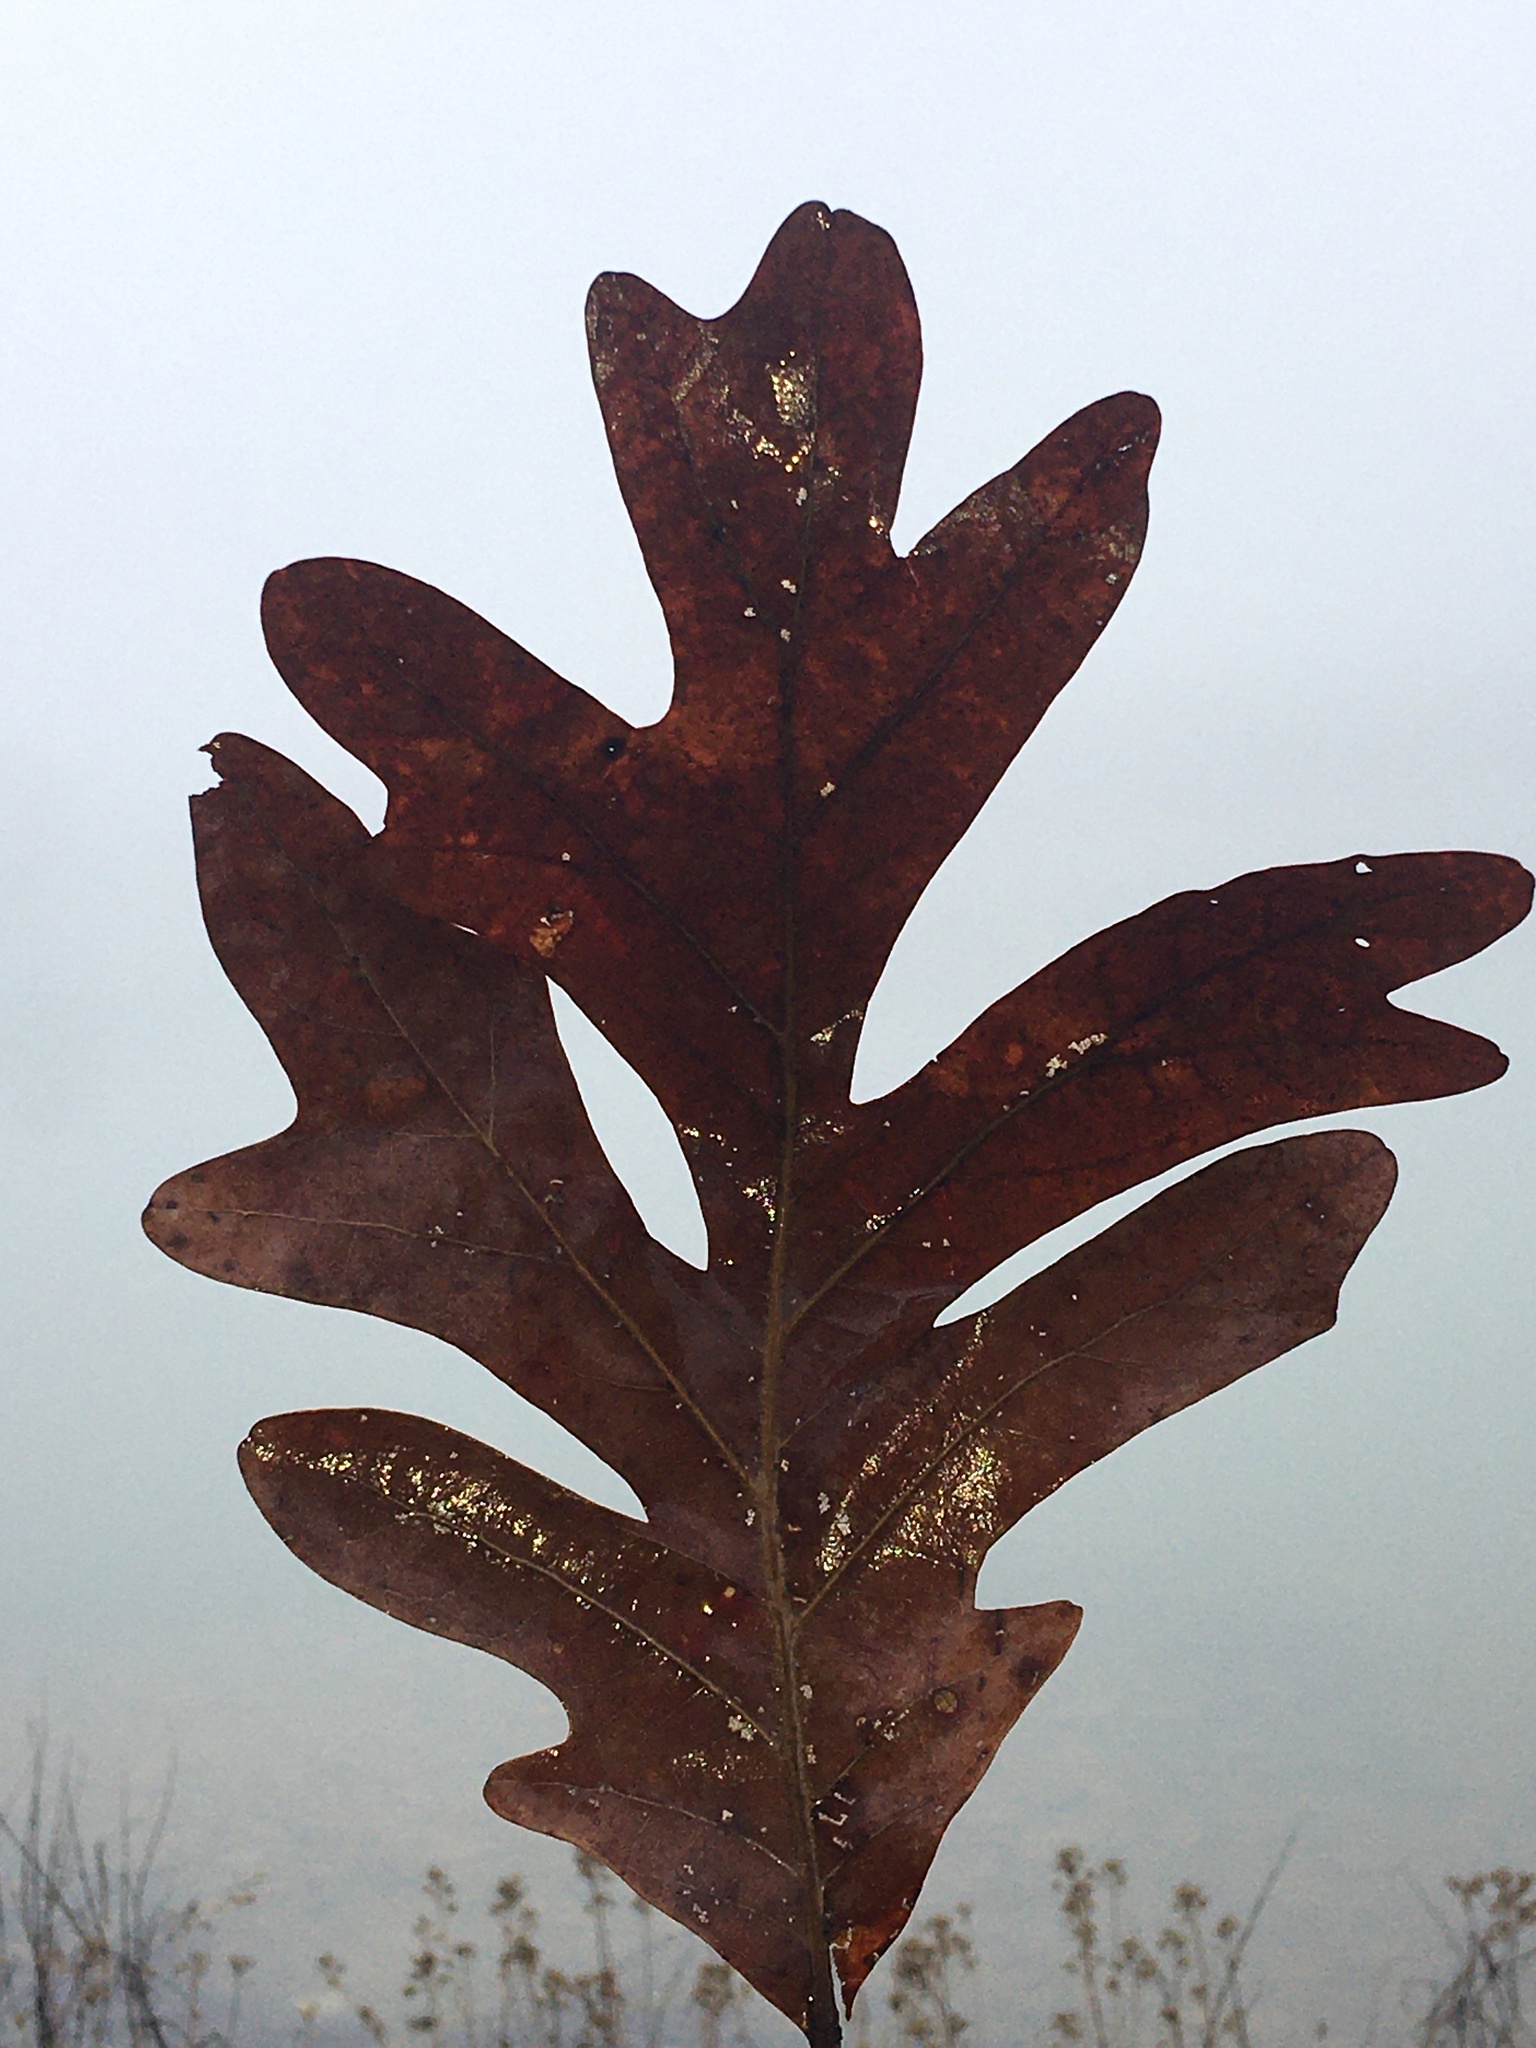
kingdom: Plantae
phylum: Tracheophyta
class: Magnoliopsida
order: Fagales
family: Fagaceae
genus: Quercus
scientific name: Quercus alba
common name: White oak
